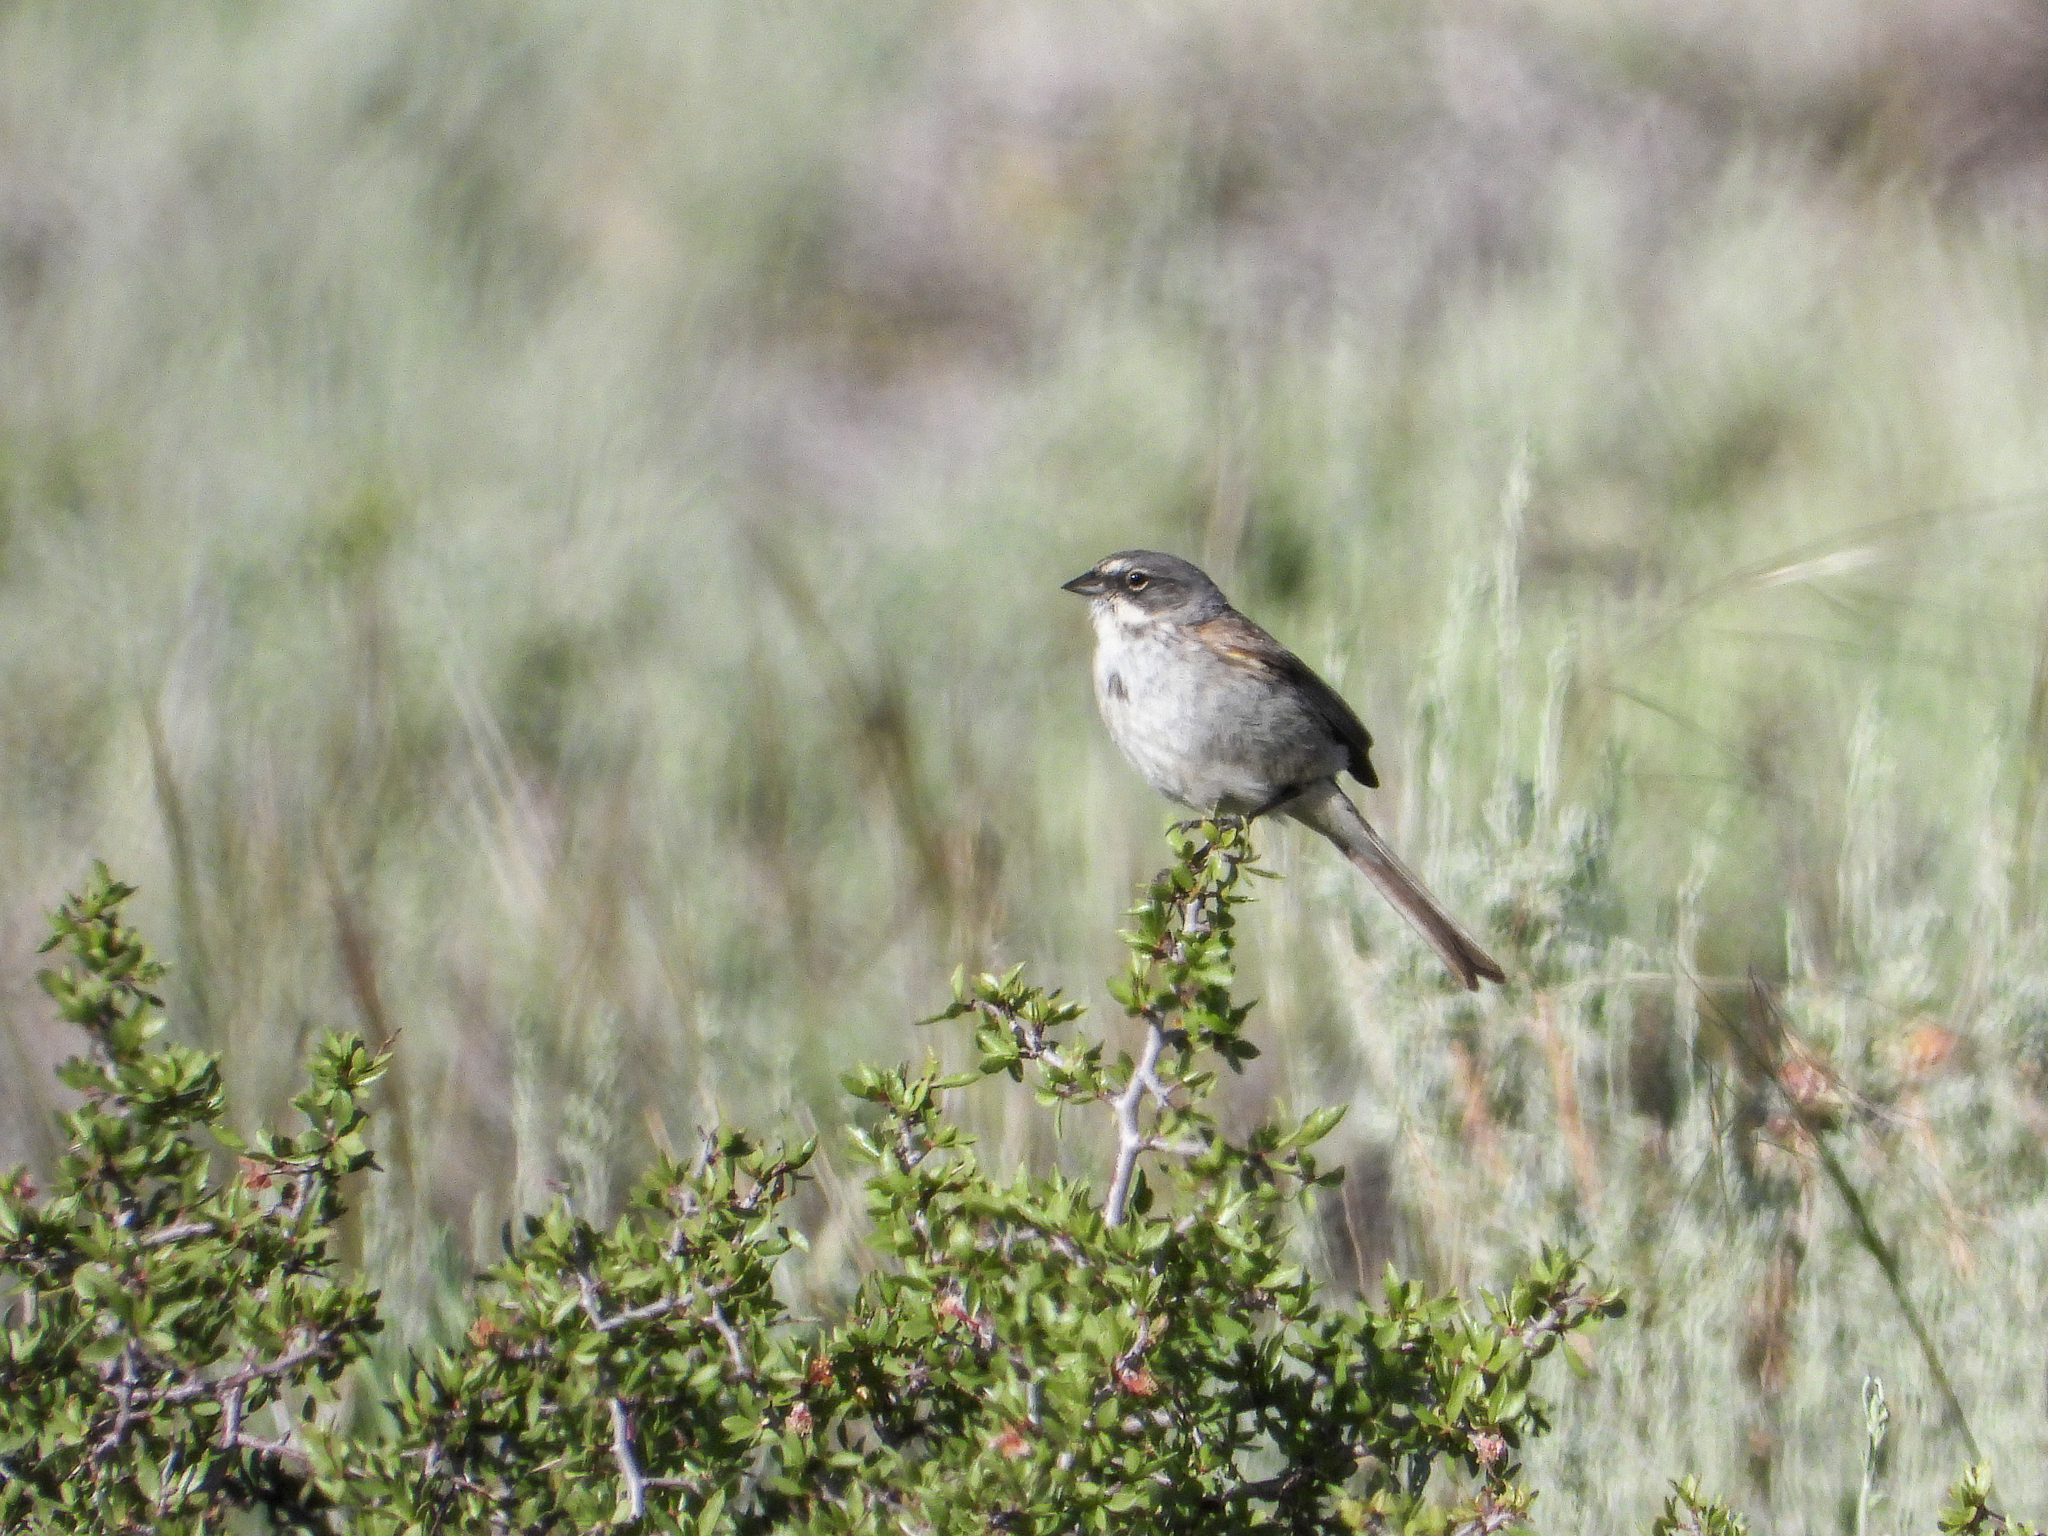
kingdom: Animalia
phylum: Chordata
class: Aves
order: Passeriformes
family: Passerellidae
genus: Artemisiospiza
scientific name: Artemisiospiza nevadensis
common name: Sagebrush sparrow
